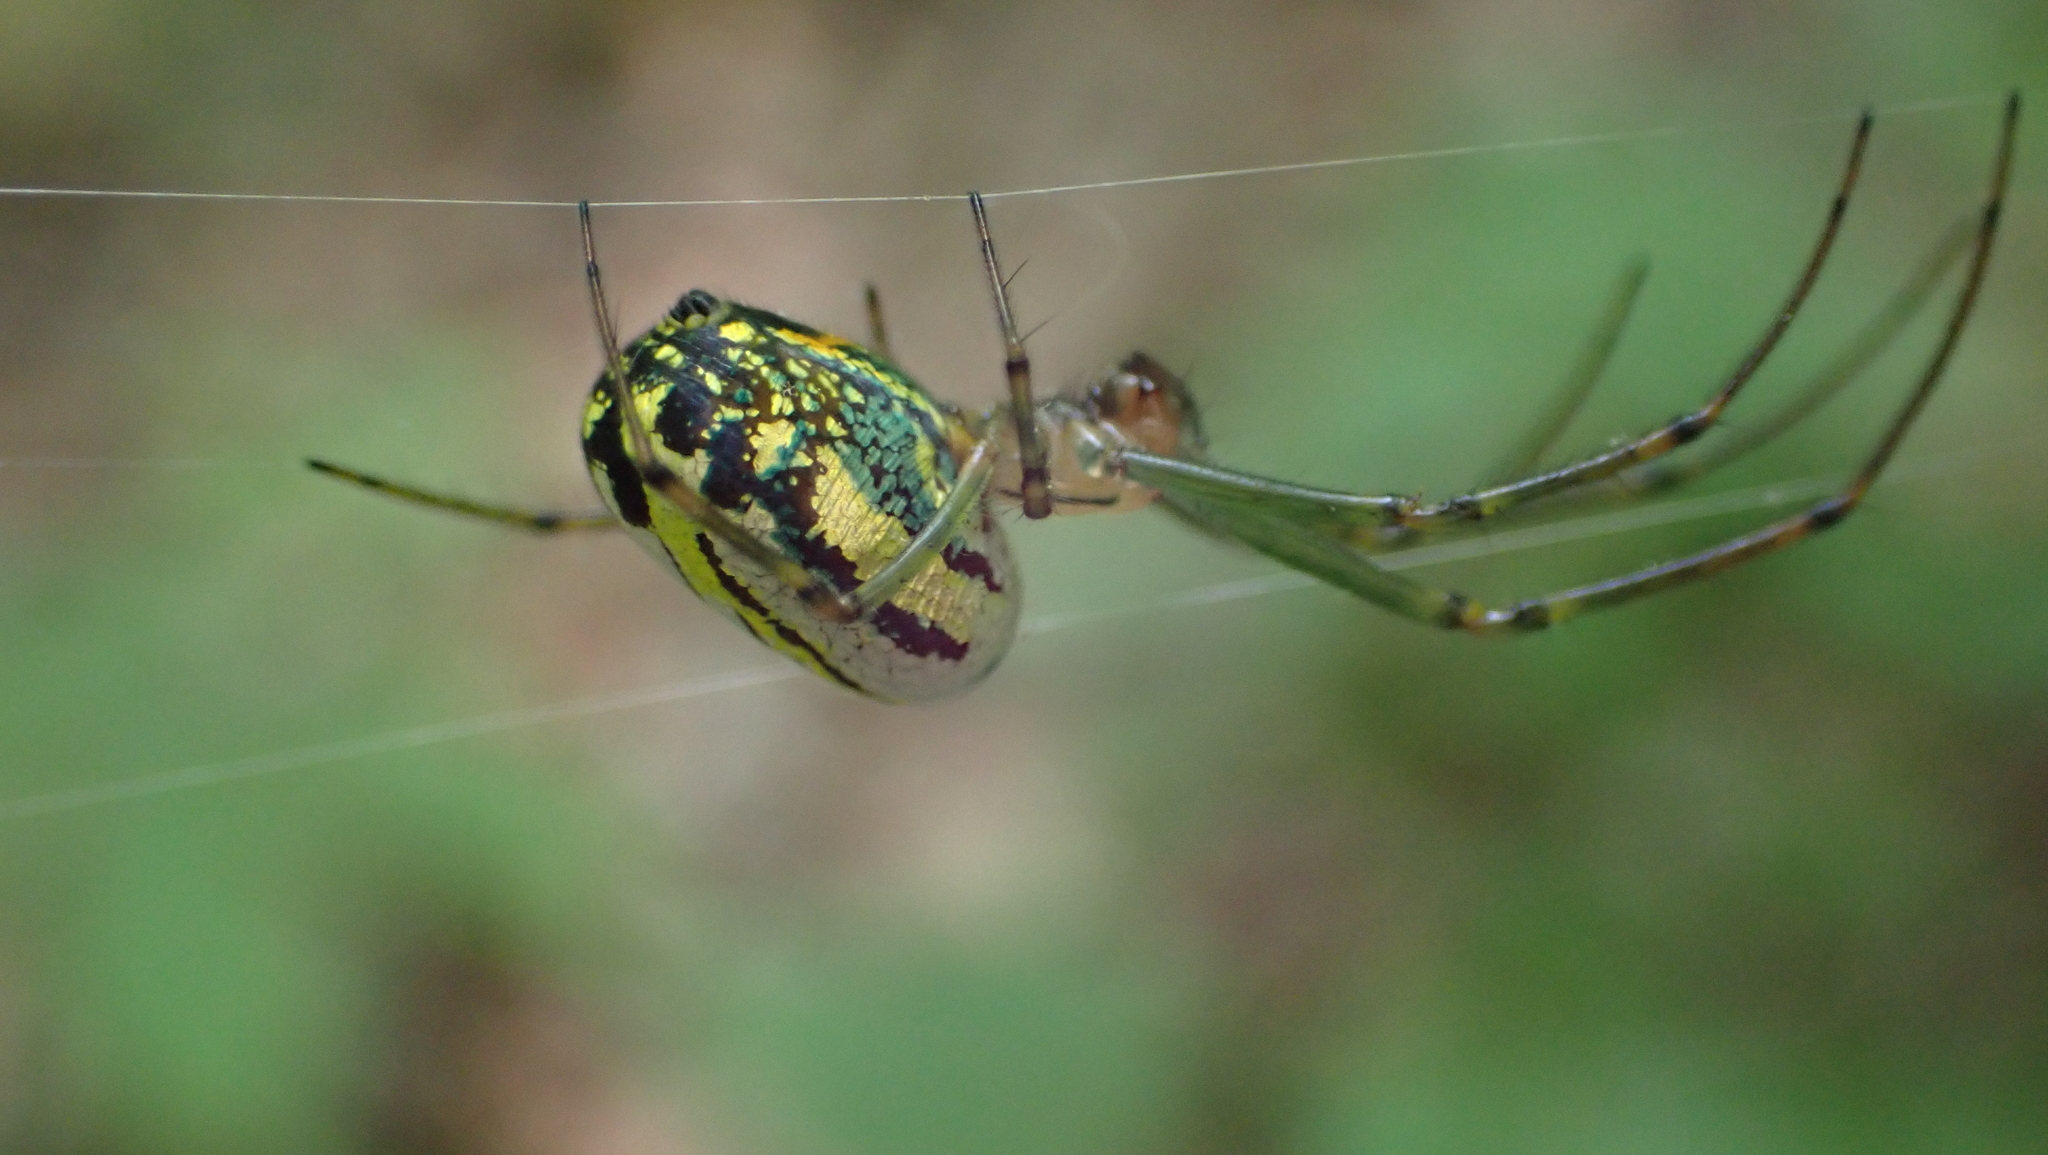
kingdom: Animalia
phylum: Arthropoda
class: Arachnida
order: Araneae
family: Tetragnathidae
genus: Leucauge
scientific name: Leucauge venusta
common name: Longjawed orb weavers
